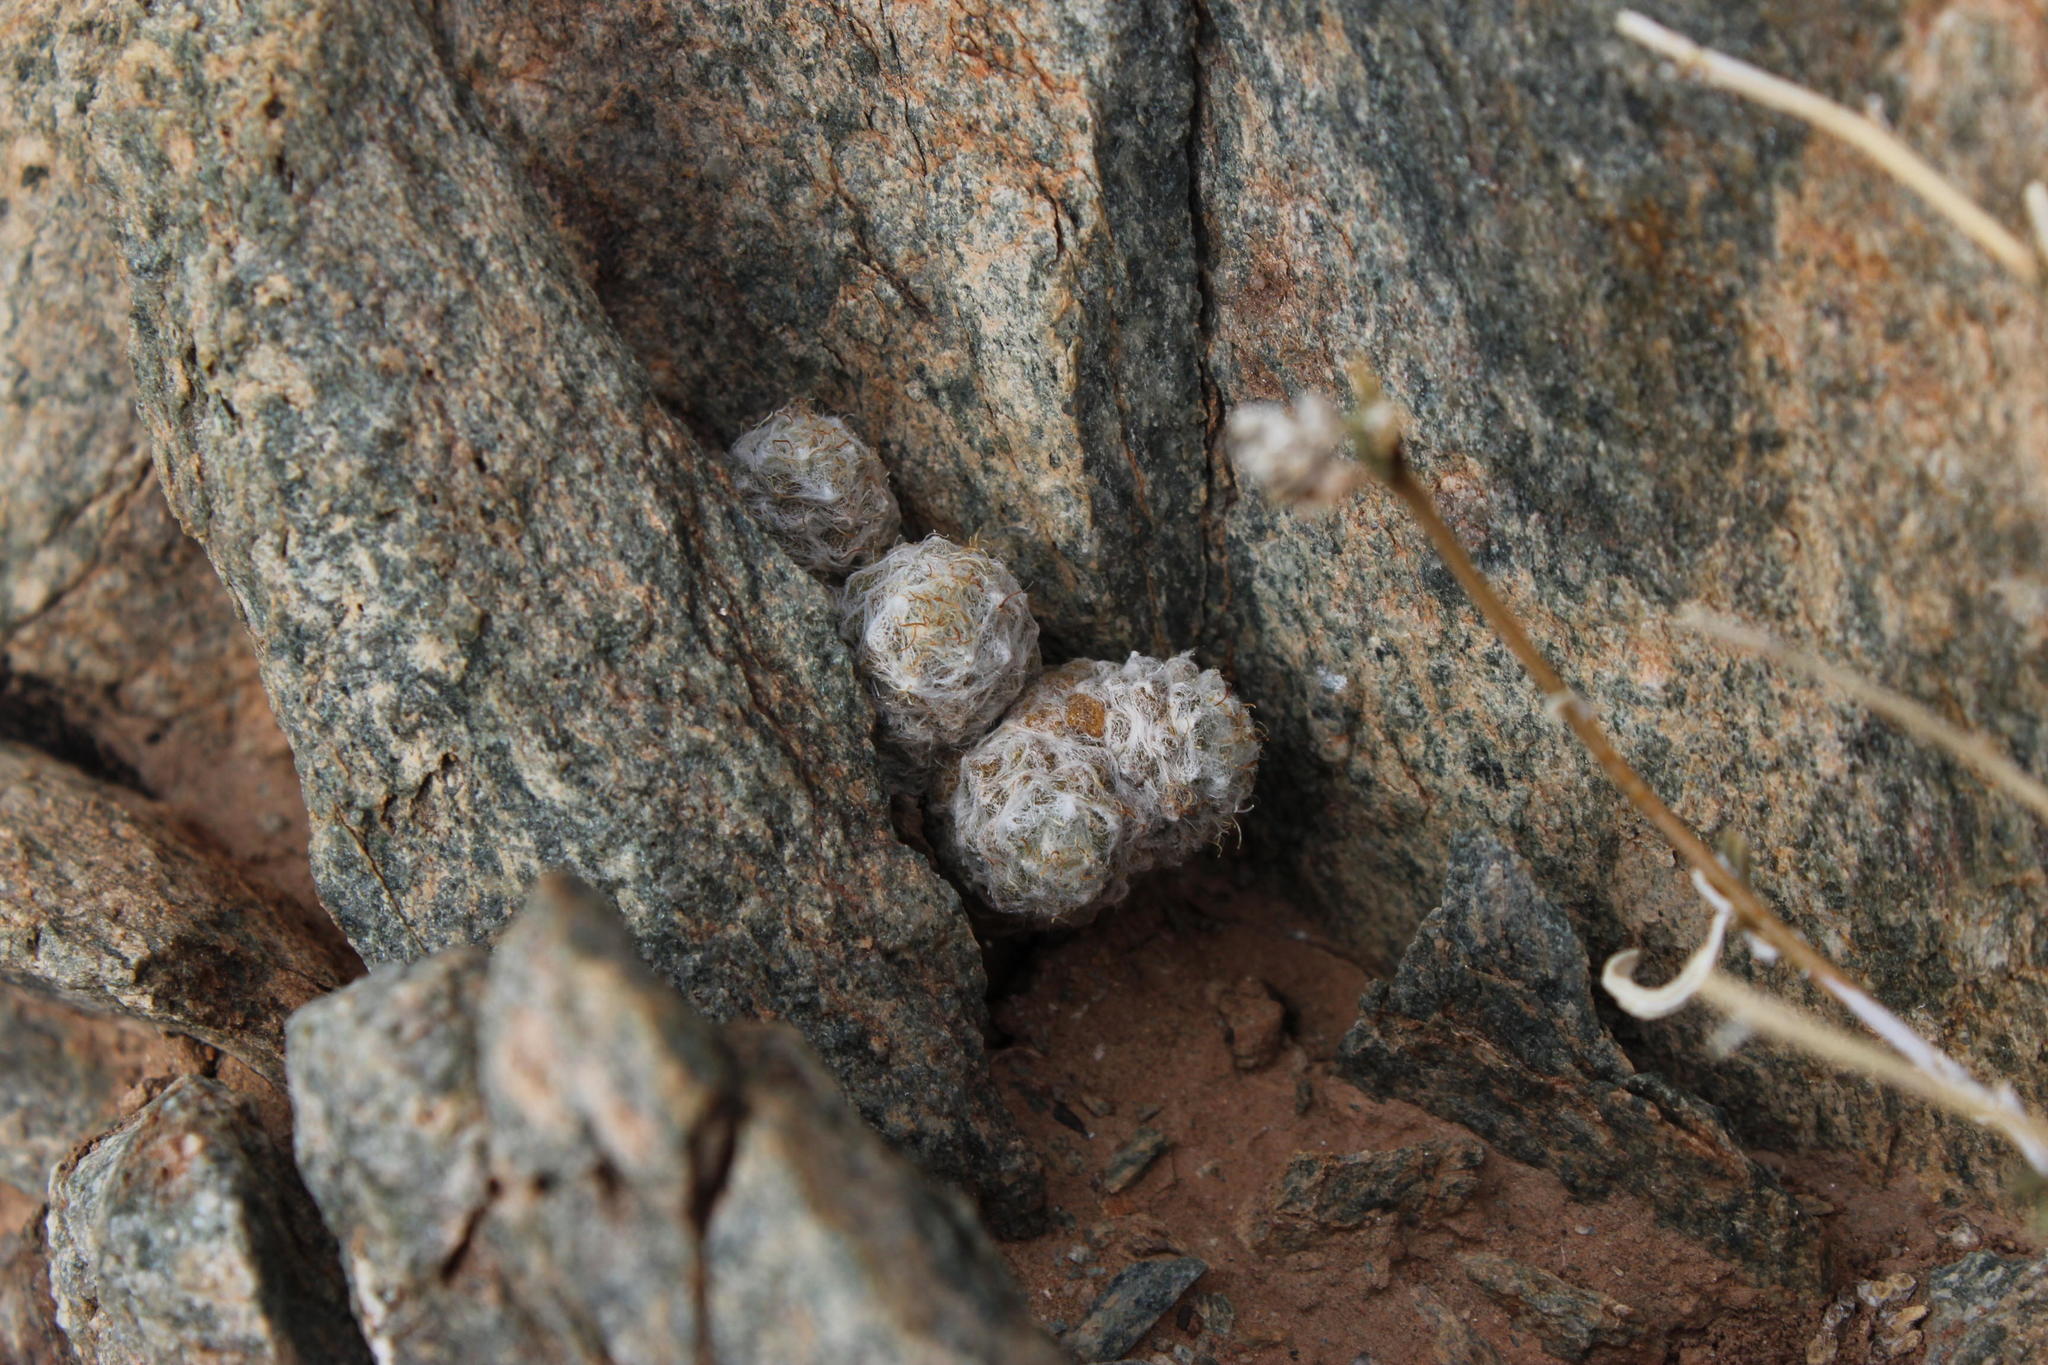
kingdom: Plantae
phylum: Tracheophyta
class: Magnoliopsida
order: Caryophyllales
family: Anacampserotaceae
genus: Anacampseros
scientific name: Anacampseros baeseckei
